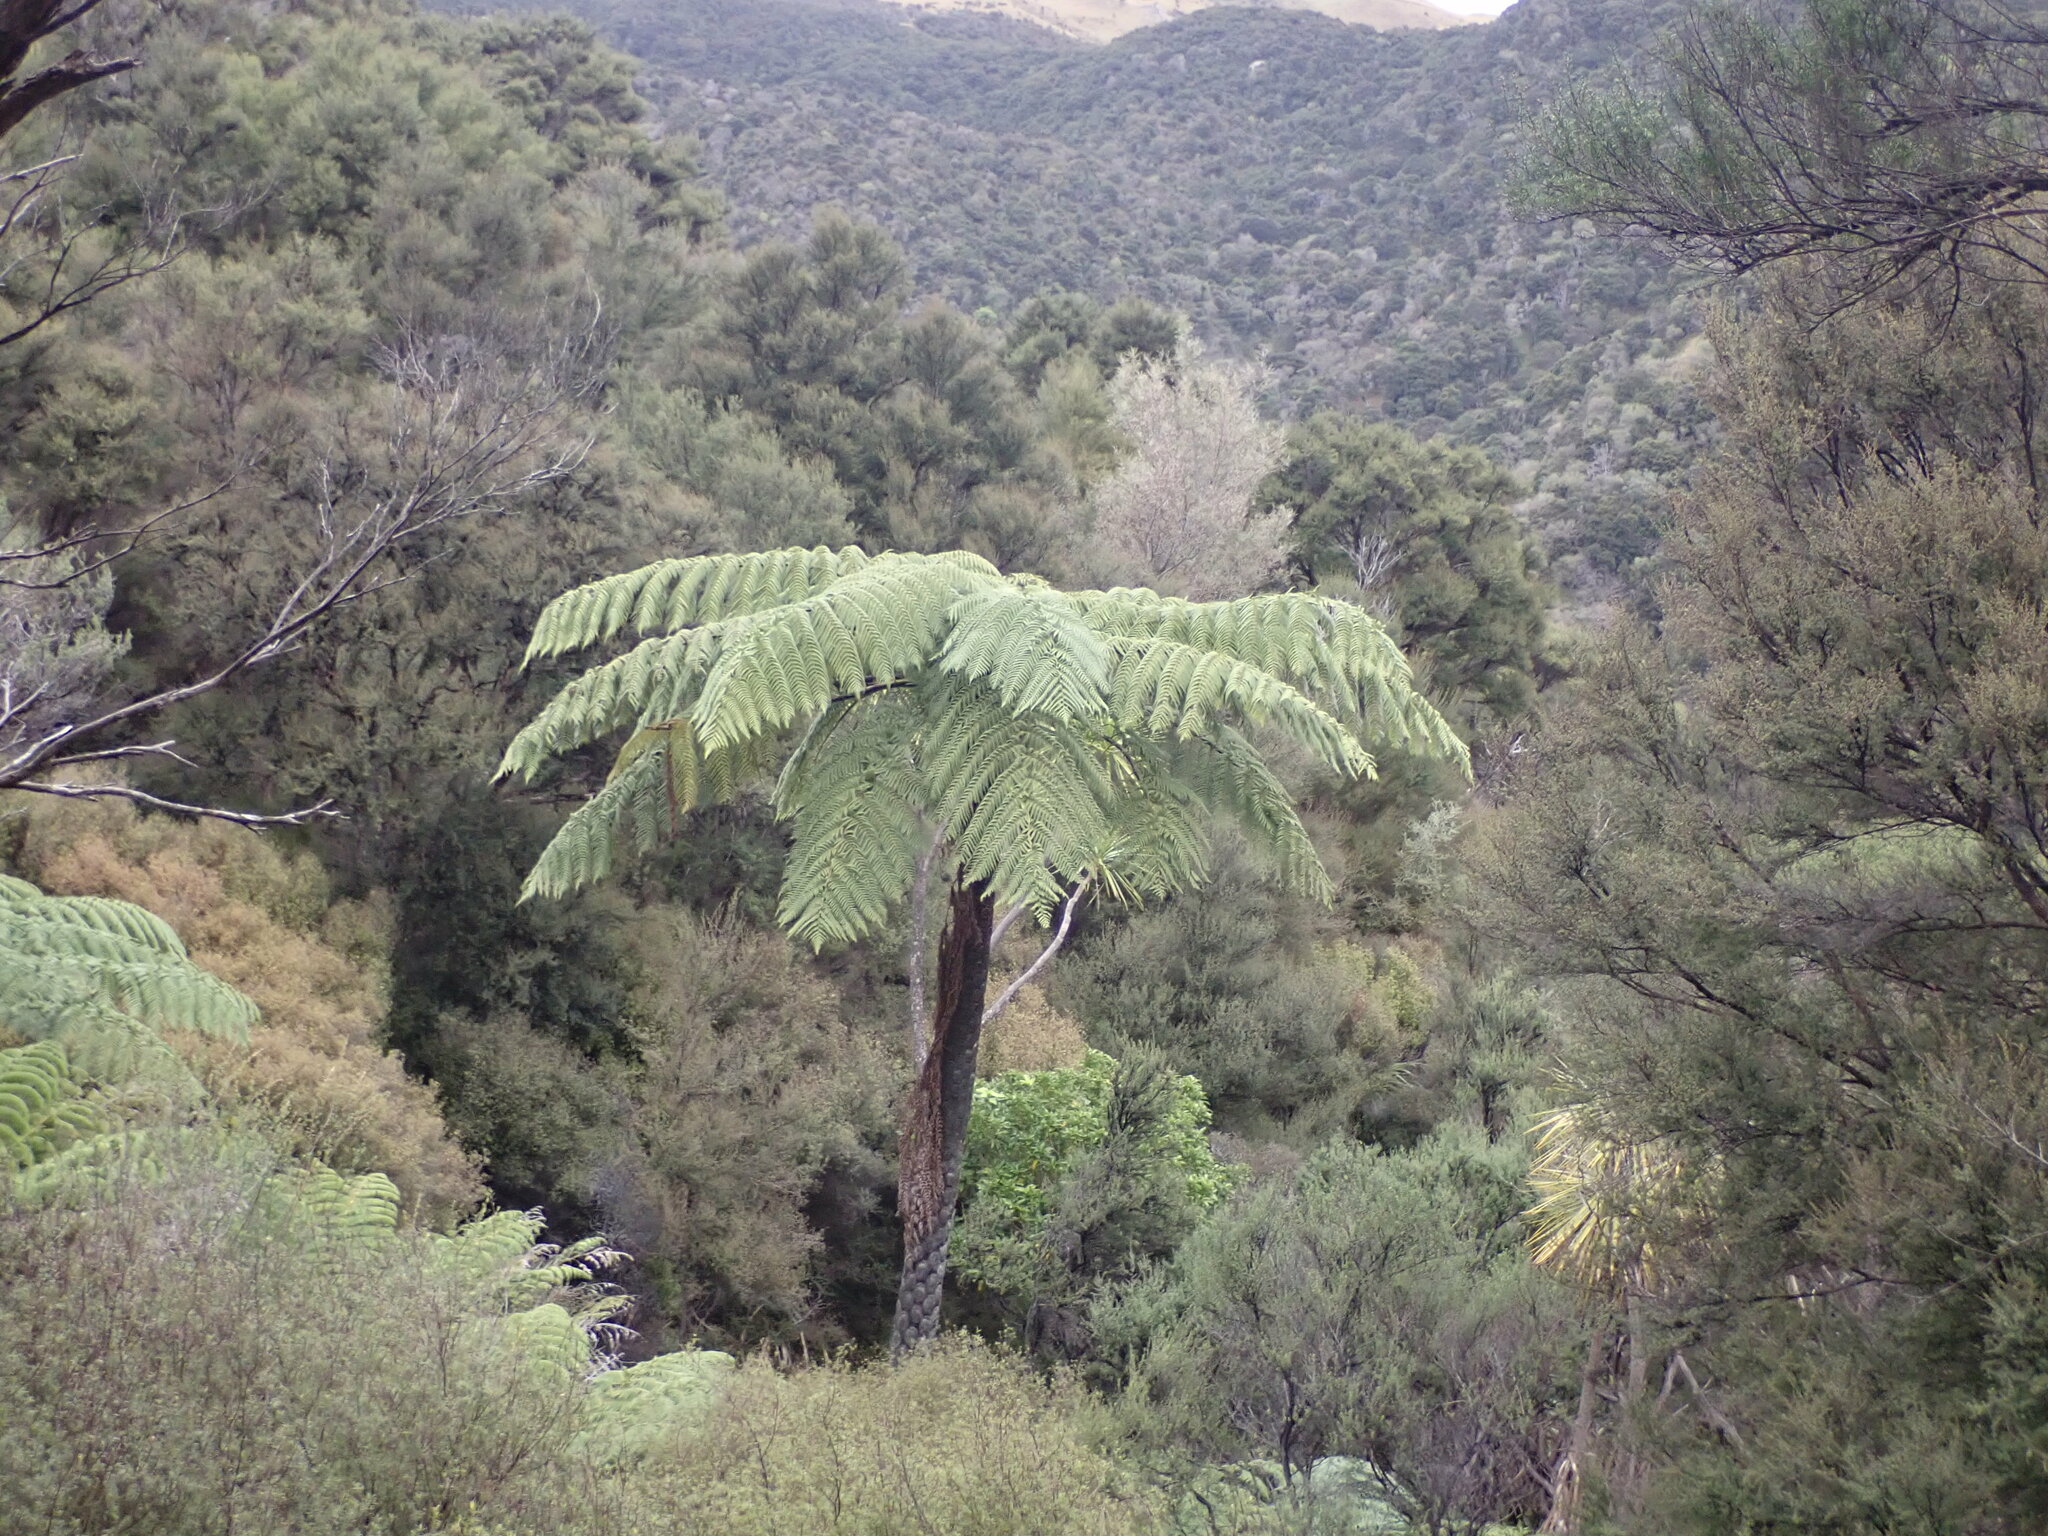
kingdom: Plantae
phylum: Tracheophyta
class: Polypodiopsida
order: Cyatheales
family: Cyatheaceae
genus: Sphaeropteris
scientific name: Sphaeropteris medullaris
